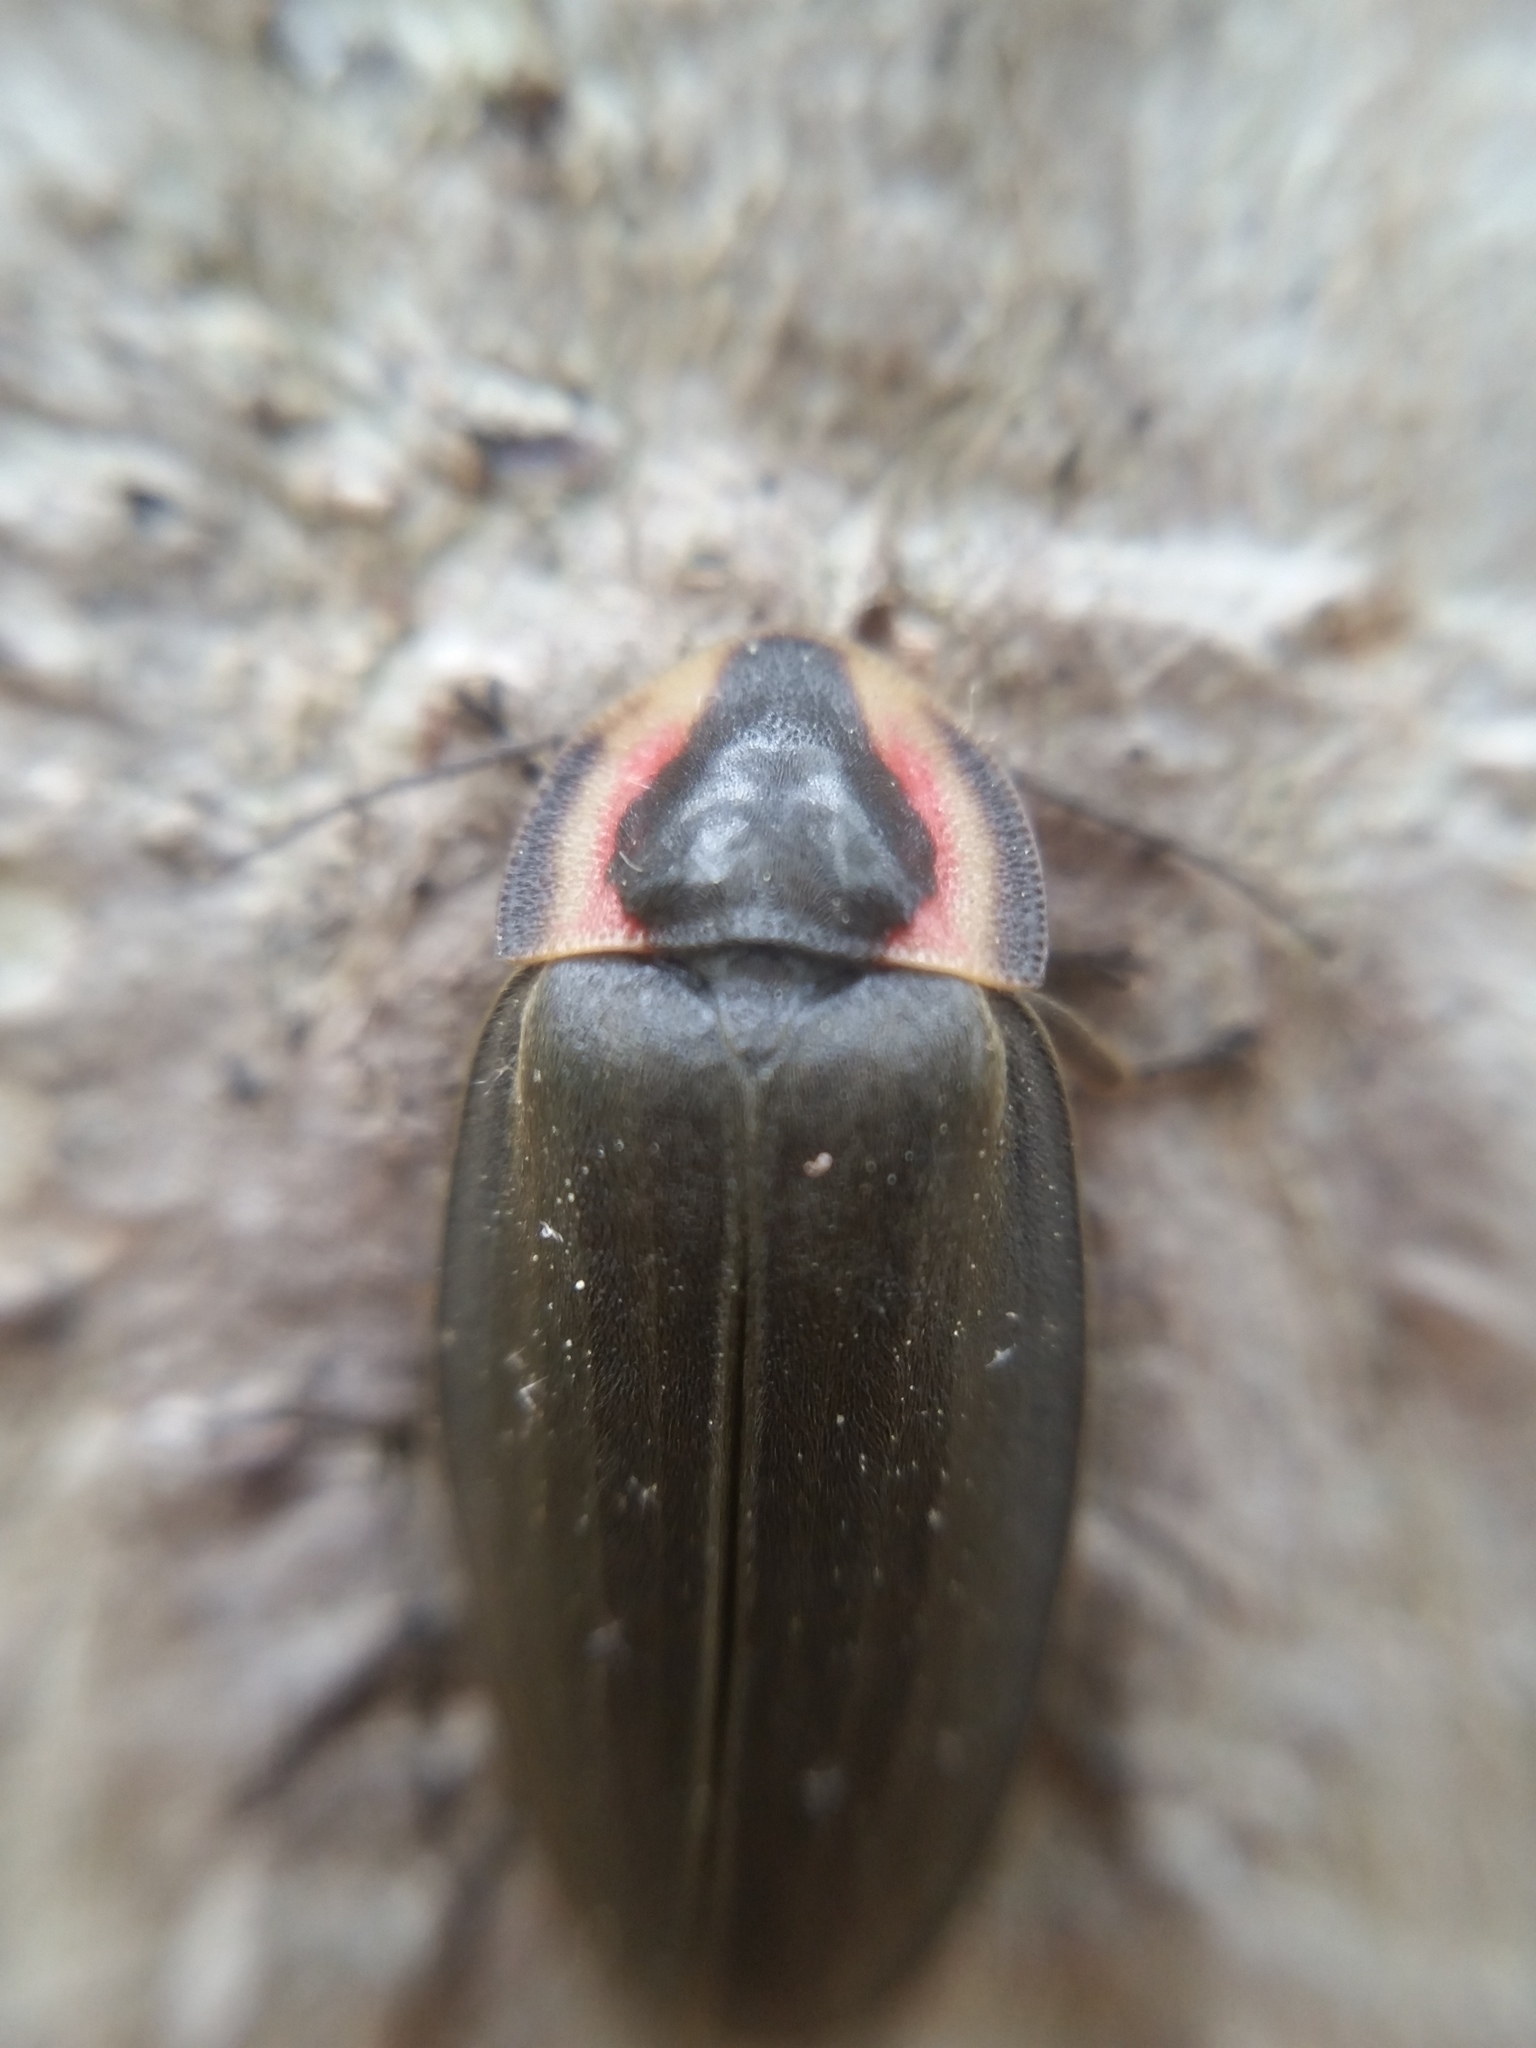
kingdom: Animalia
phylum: Arthropoda
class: Insecta
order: Coleoptera
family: Lampyridae
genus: Photinus
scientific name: Photinus corrusca
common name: Winter firefly
